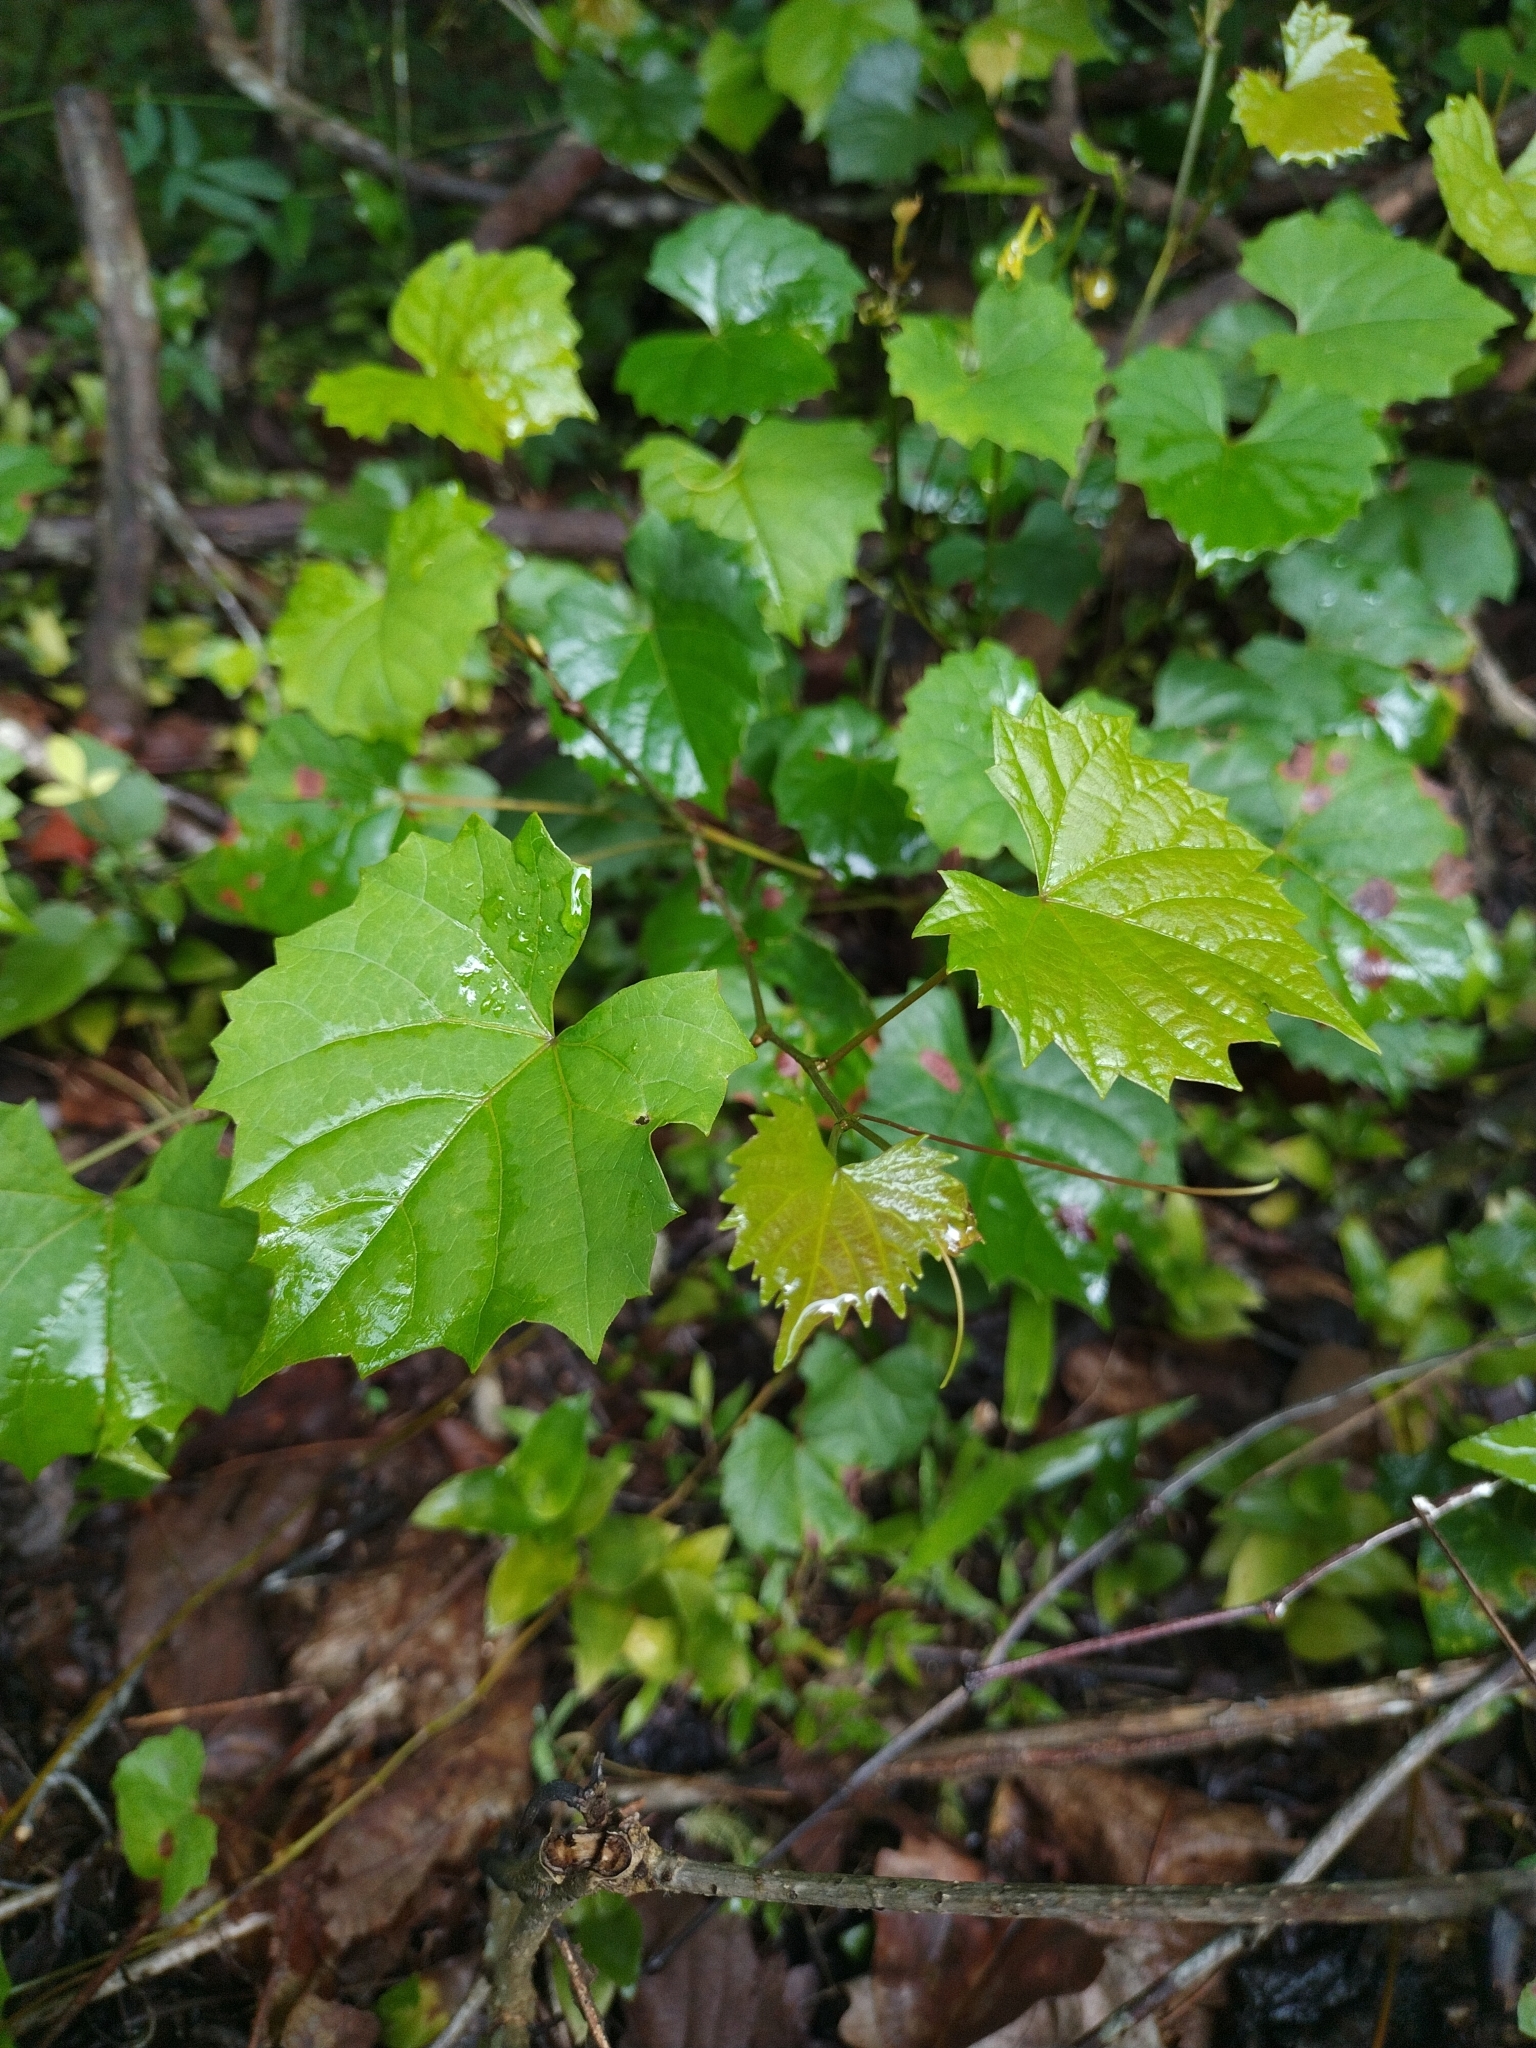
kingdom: Plantae
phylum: Tracheophyta
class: Magnoliopsida
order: Vitales
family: Vitaceae
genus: Vitis
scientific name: Vitis rotundifolia
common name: Muscadine grape
